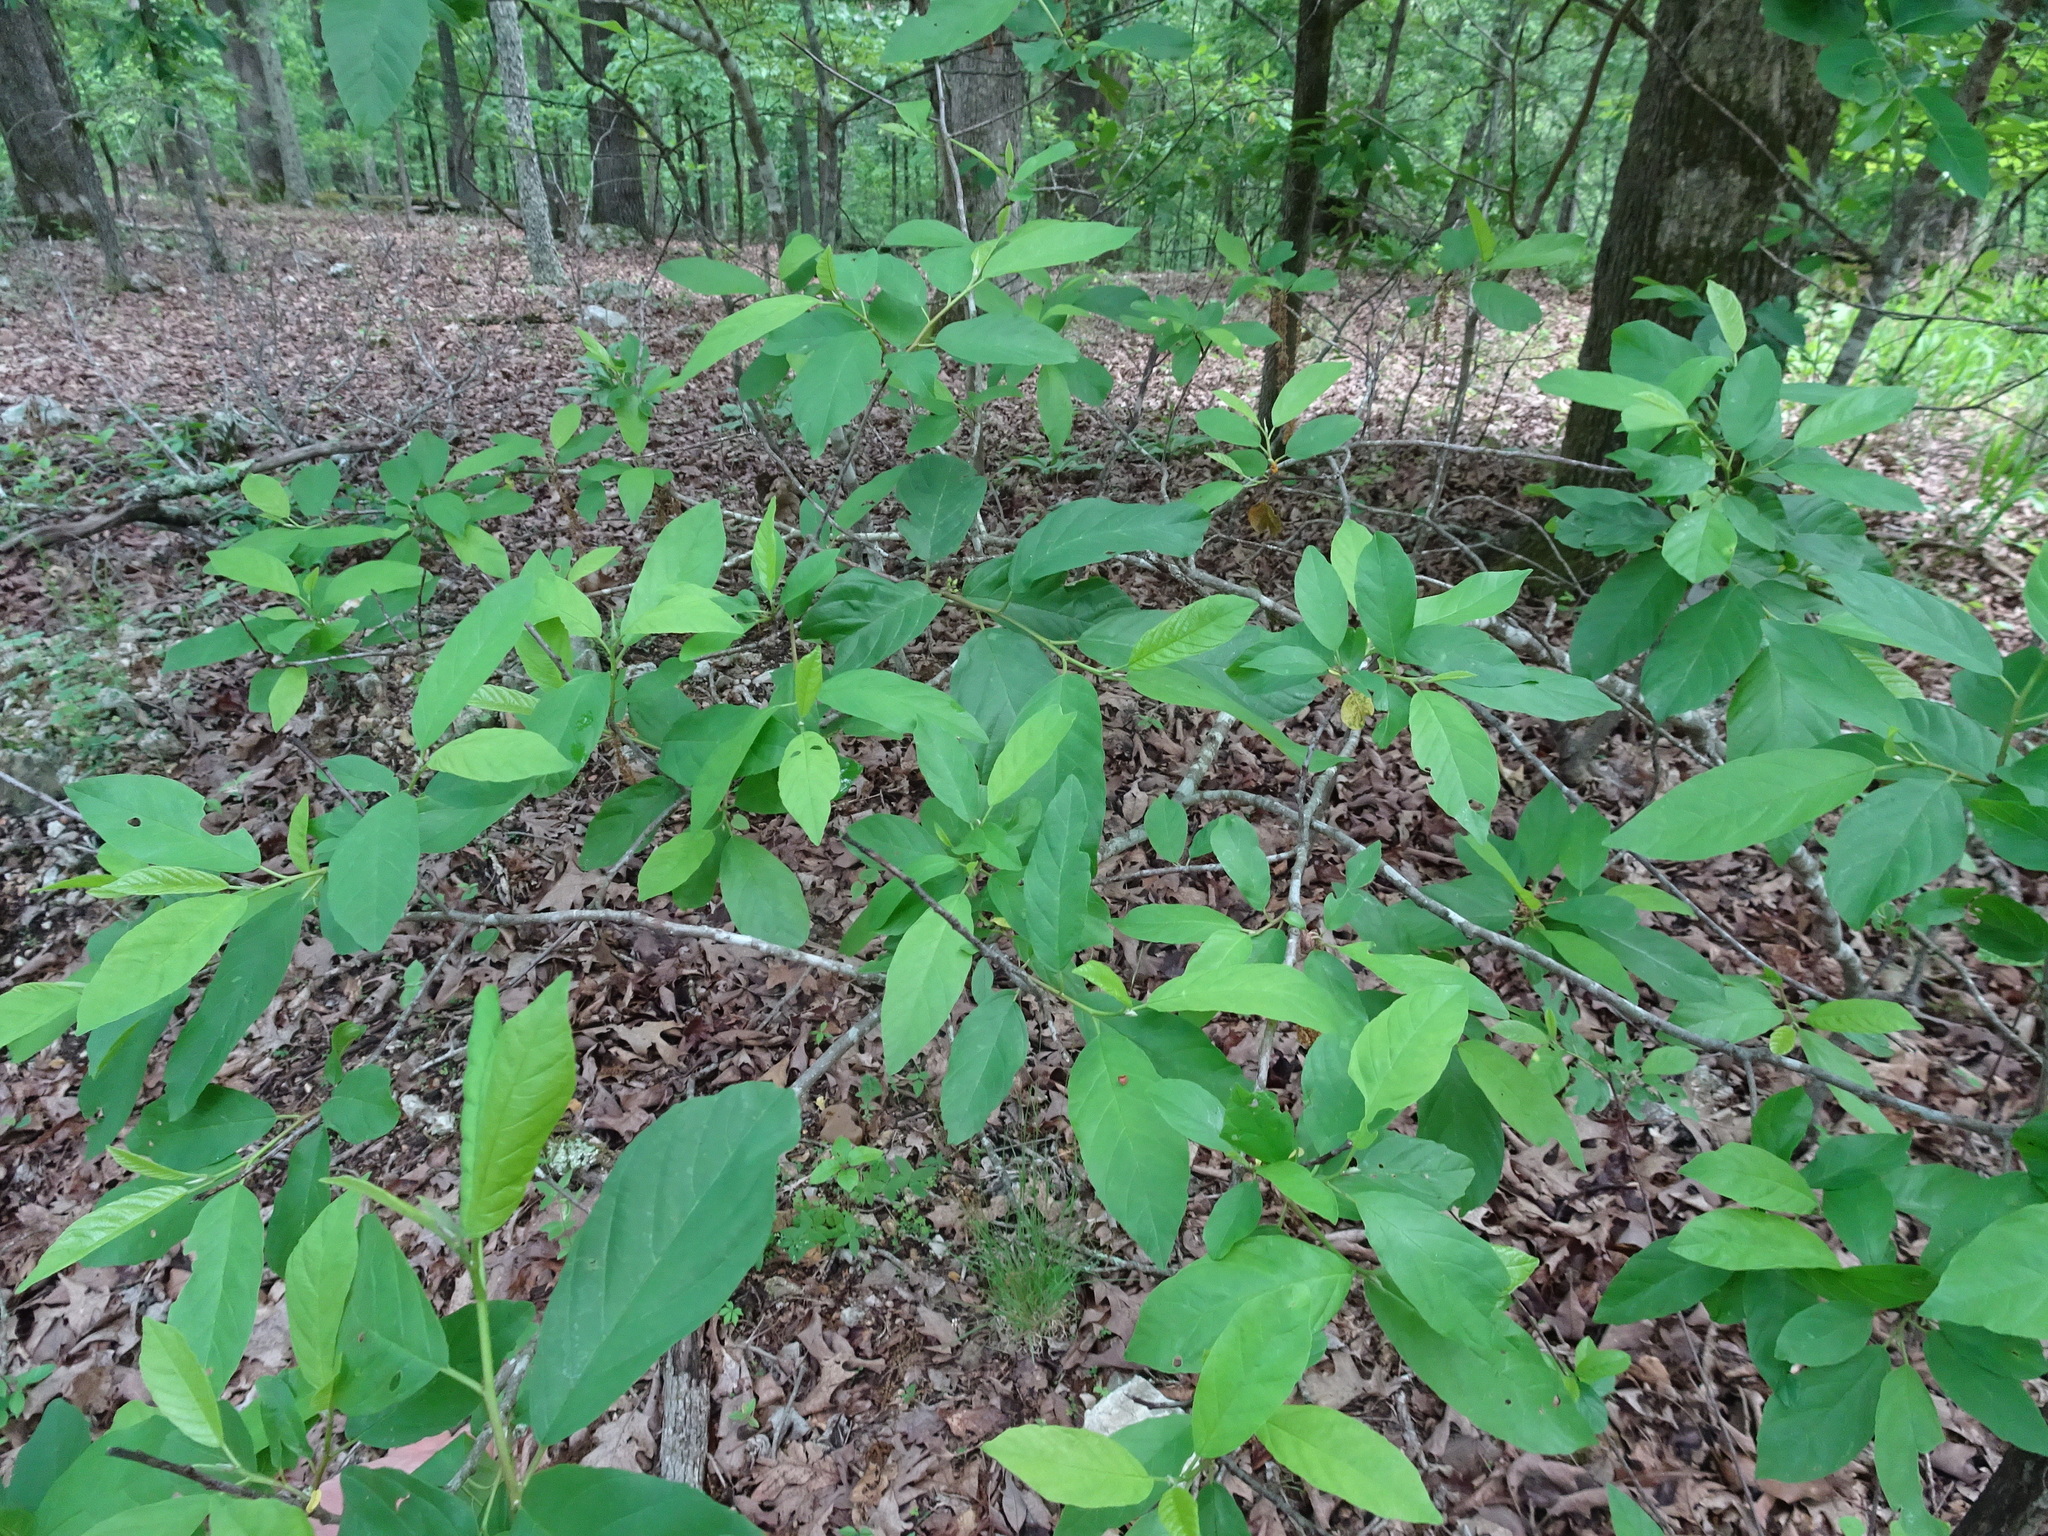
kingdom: Plantae
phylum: Tracheophyta
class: Magnoliopsida
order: Rosales
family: Rhamnaceae
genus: Frangula
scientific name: Frangula caroliniana
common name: Carolina buckthorn
